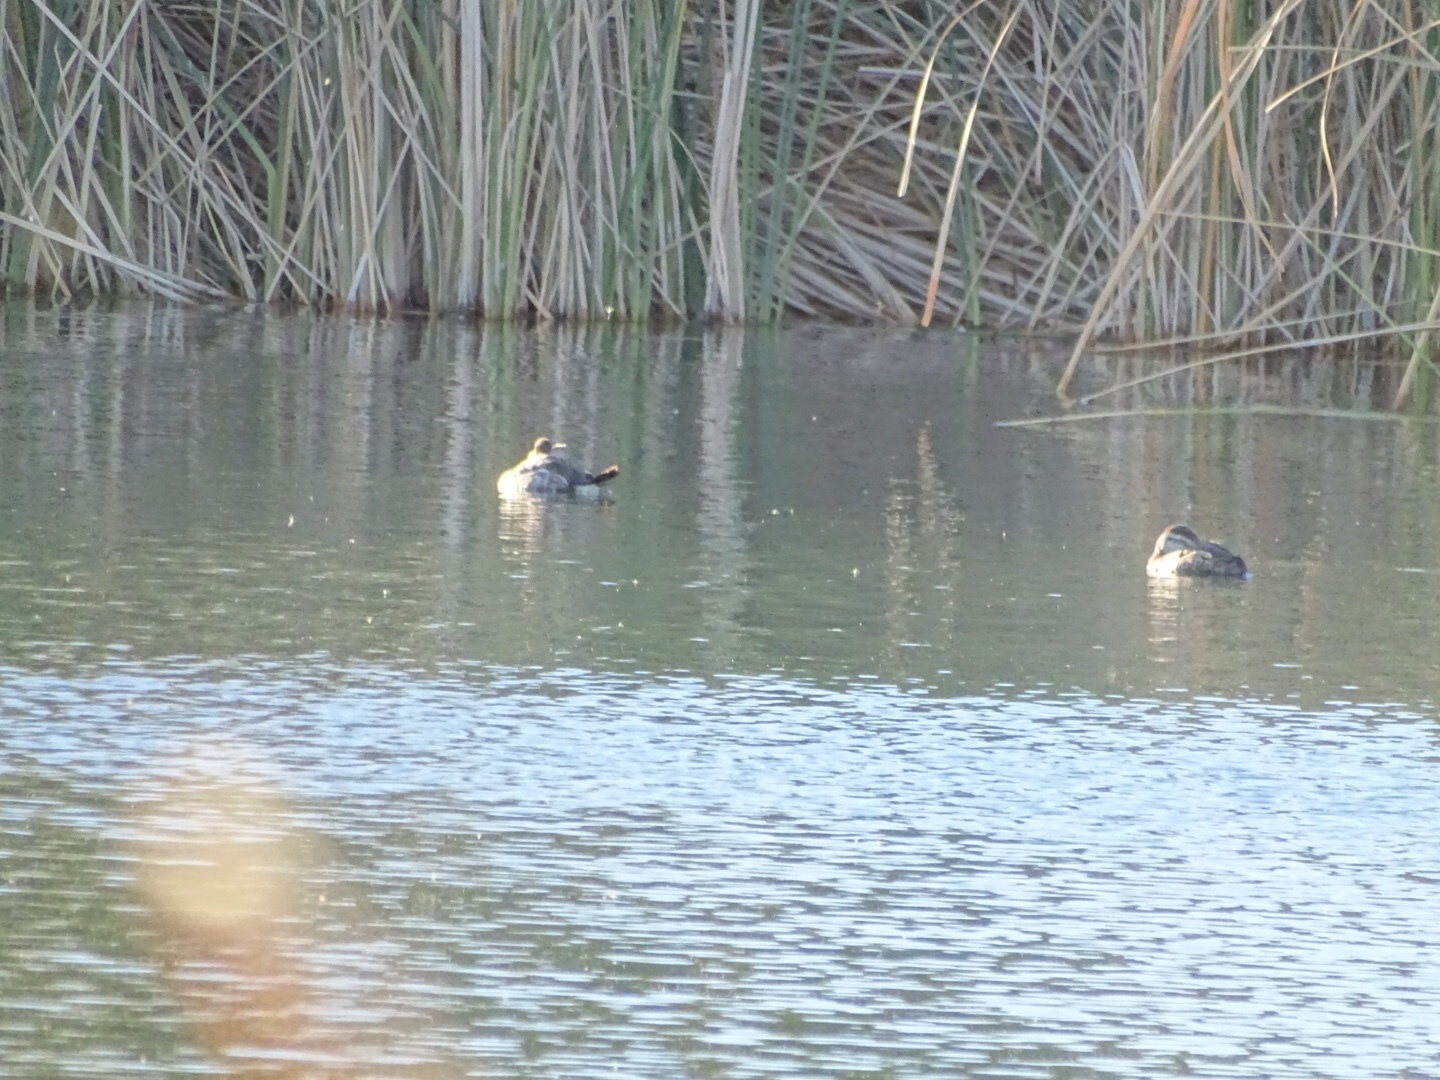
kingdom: Animalia
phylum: Chordata
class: Aves
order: Anseriformes
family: Anatidae
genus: Oxyura
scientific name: Oxyura jamaicensis
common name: Ruddy duck
